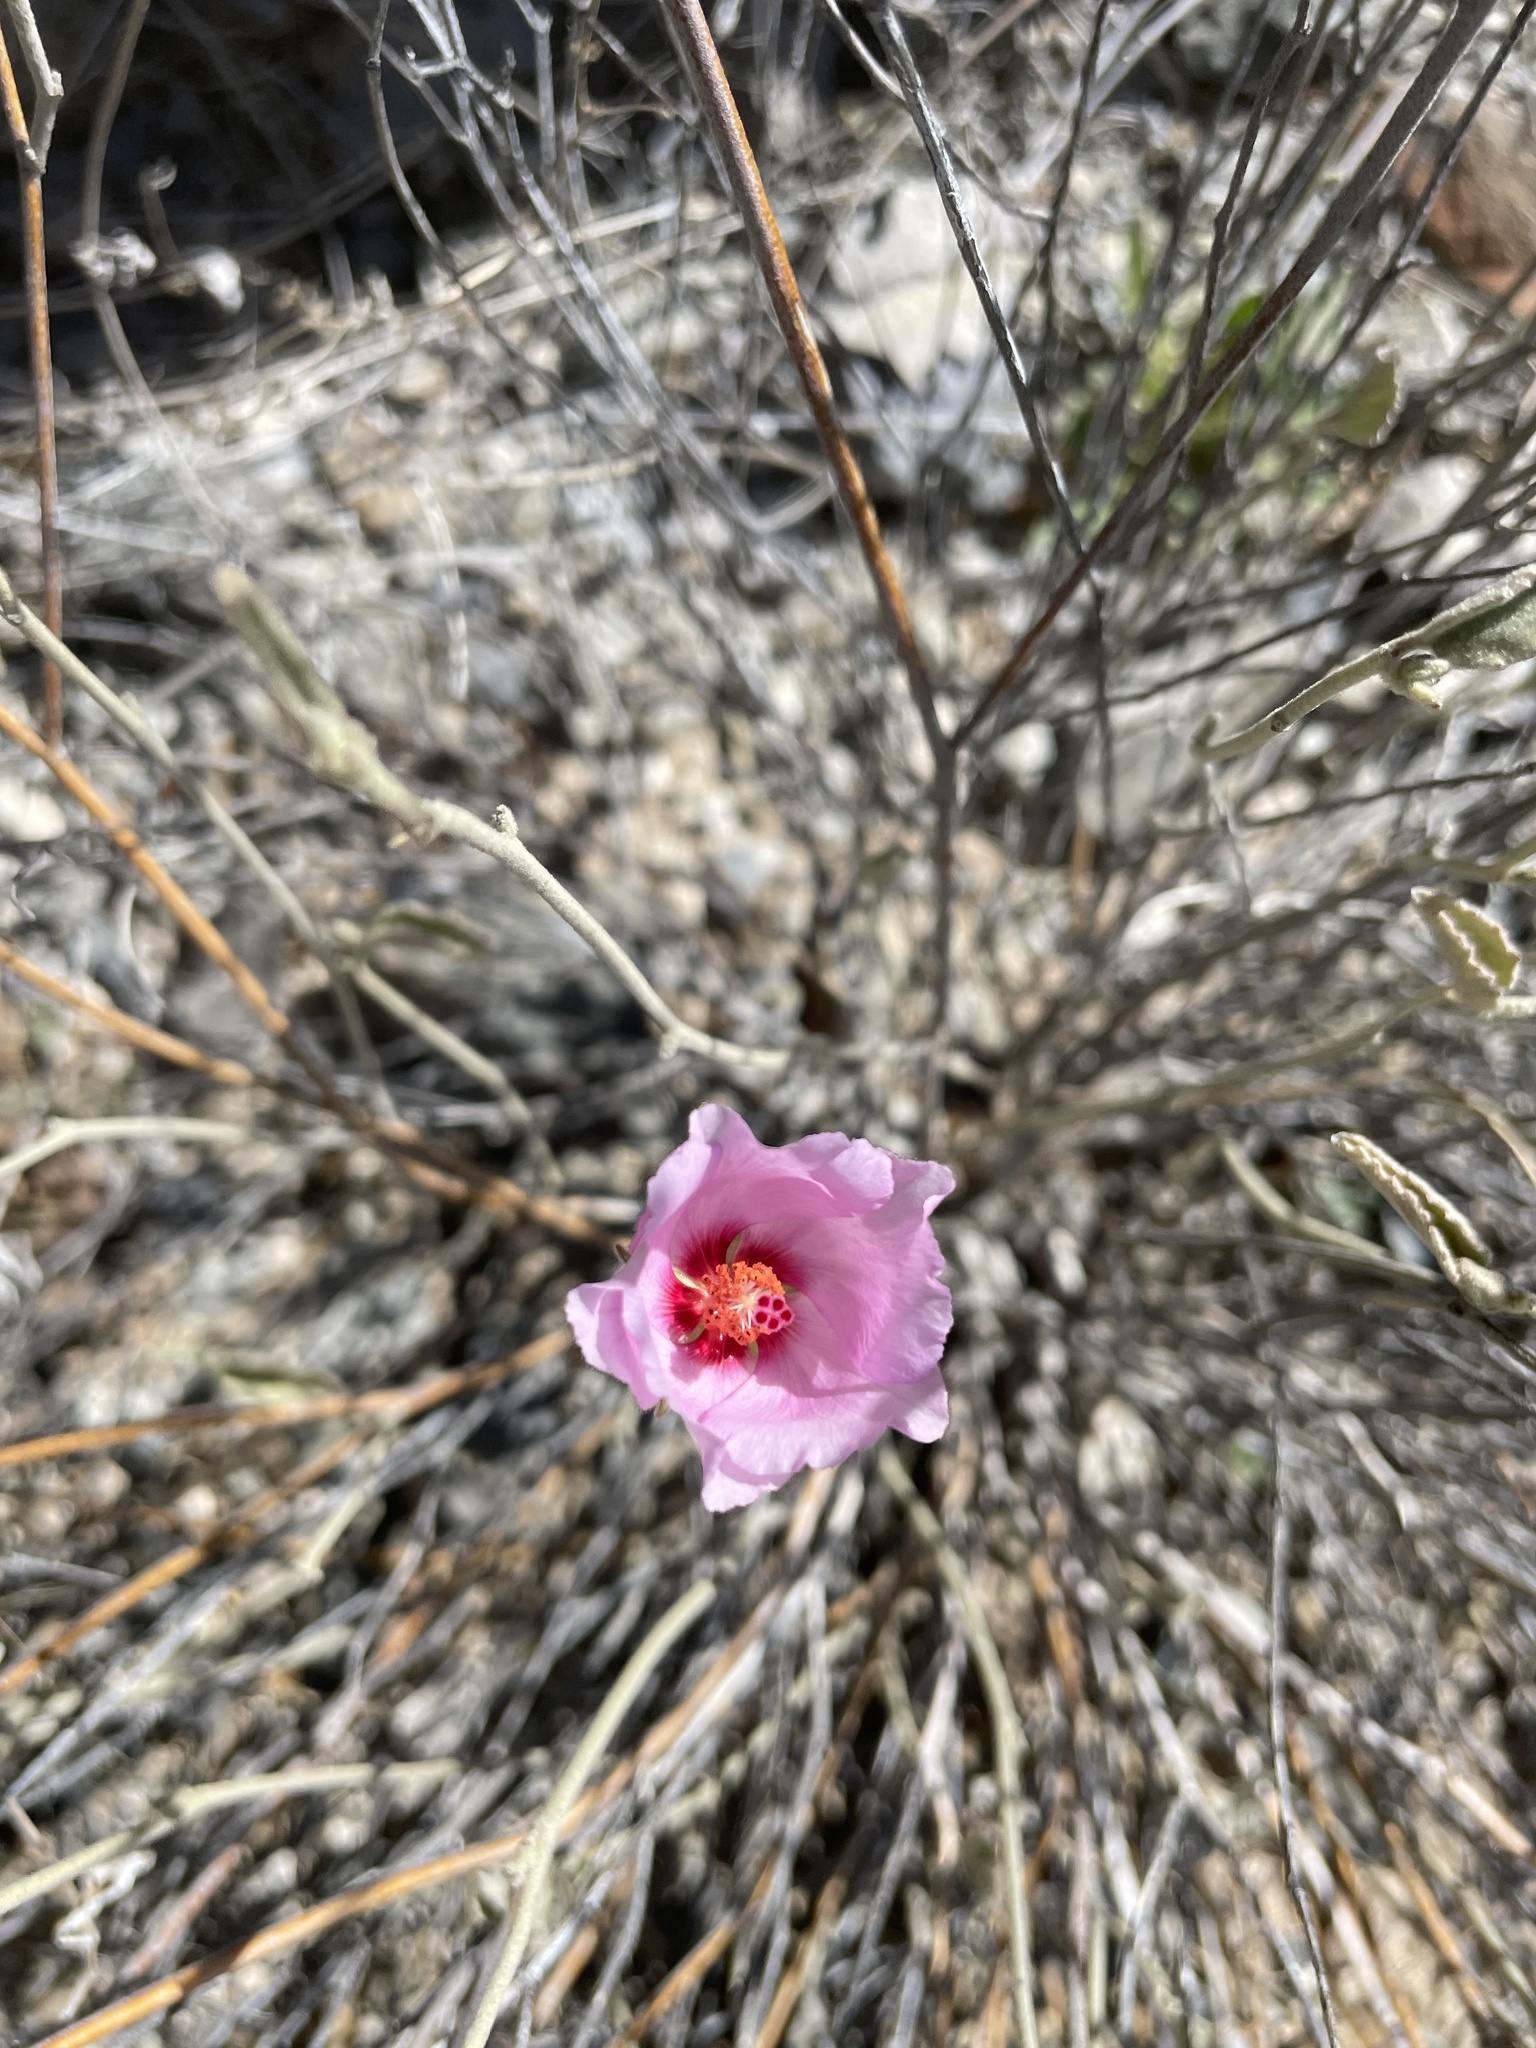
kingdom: Plantae
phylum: Tracheophyta
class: Magnoliopsida
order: Malvales
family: Malvaceae
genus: Hibiscus
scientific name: Hibiscus denudatus
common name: Paleface
